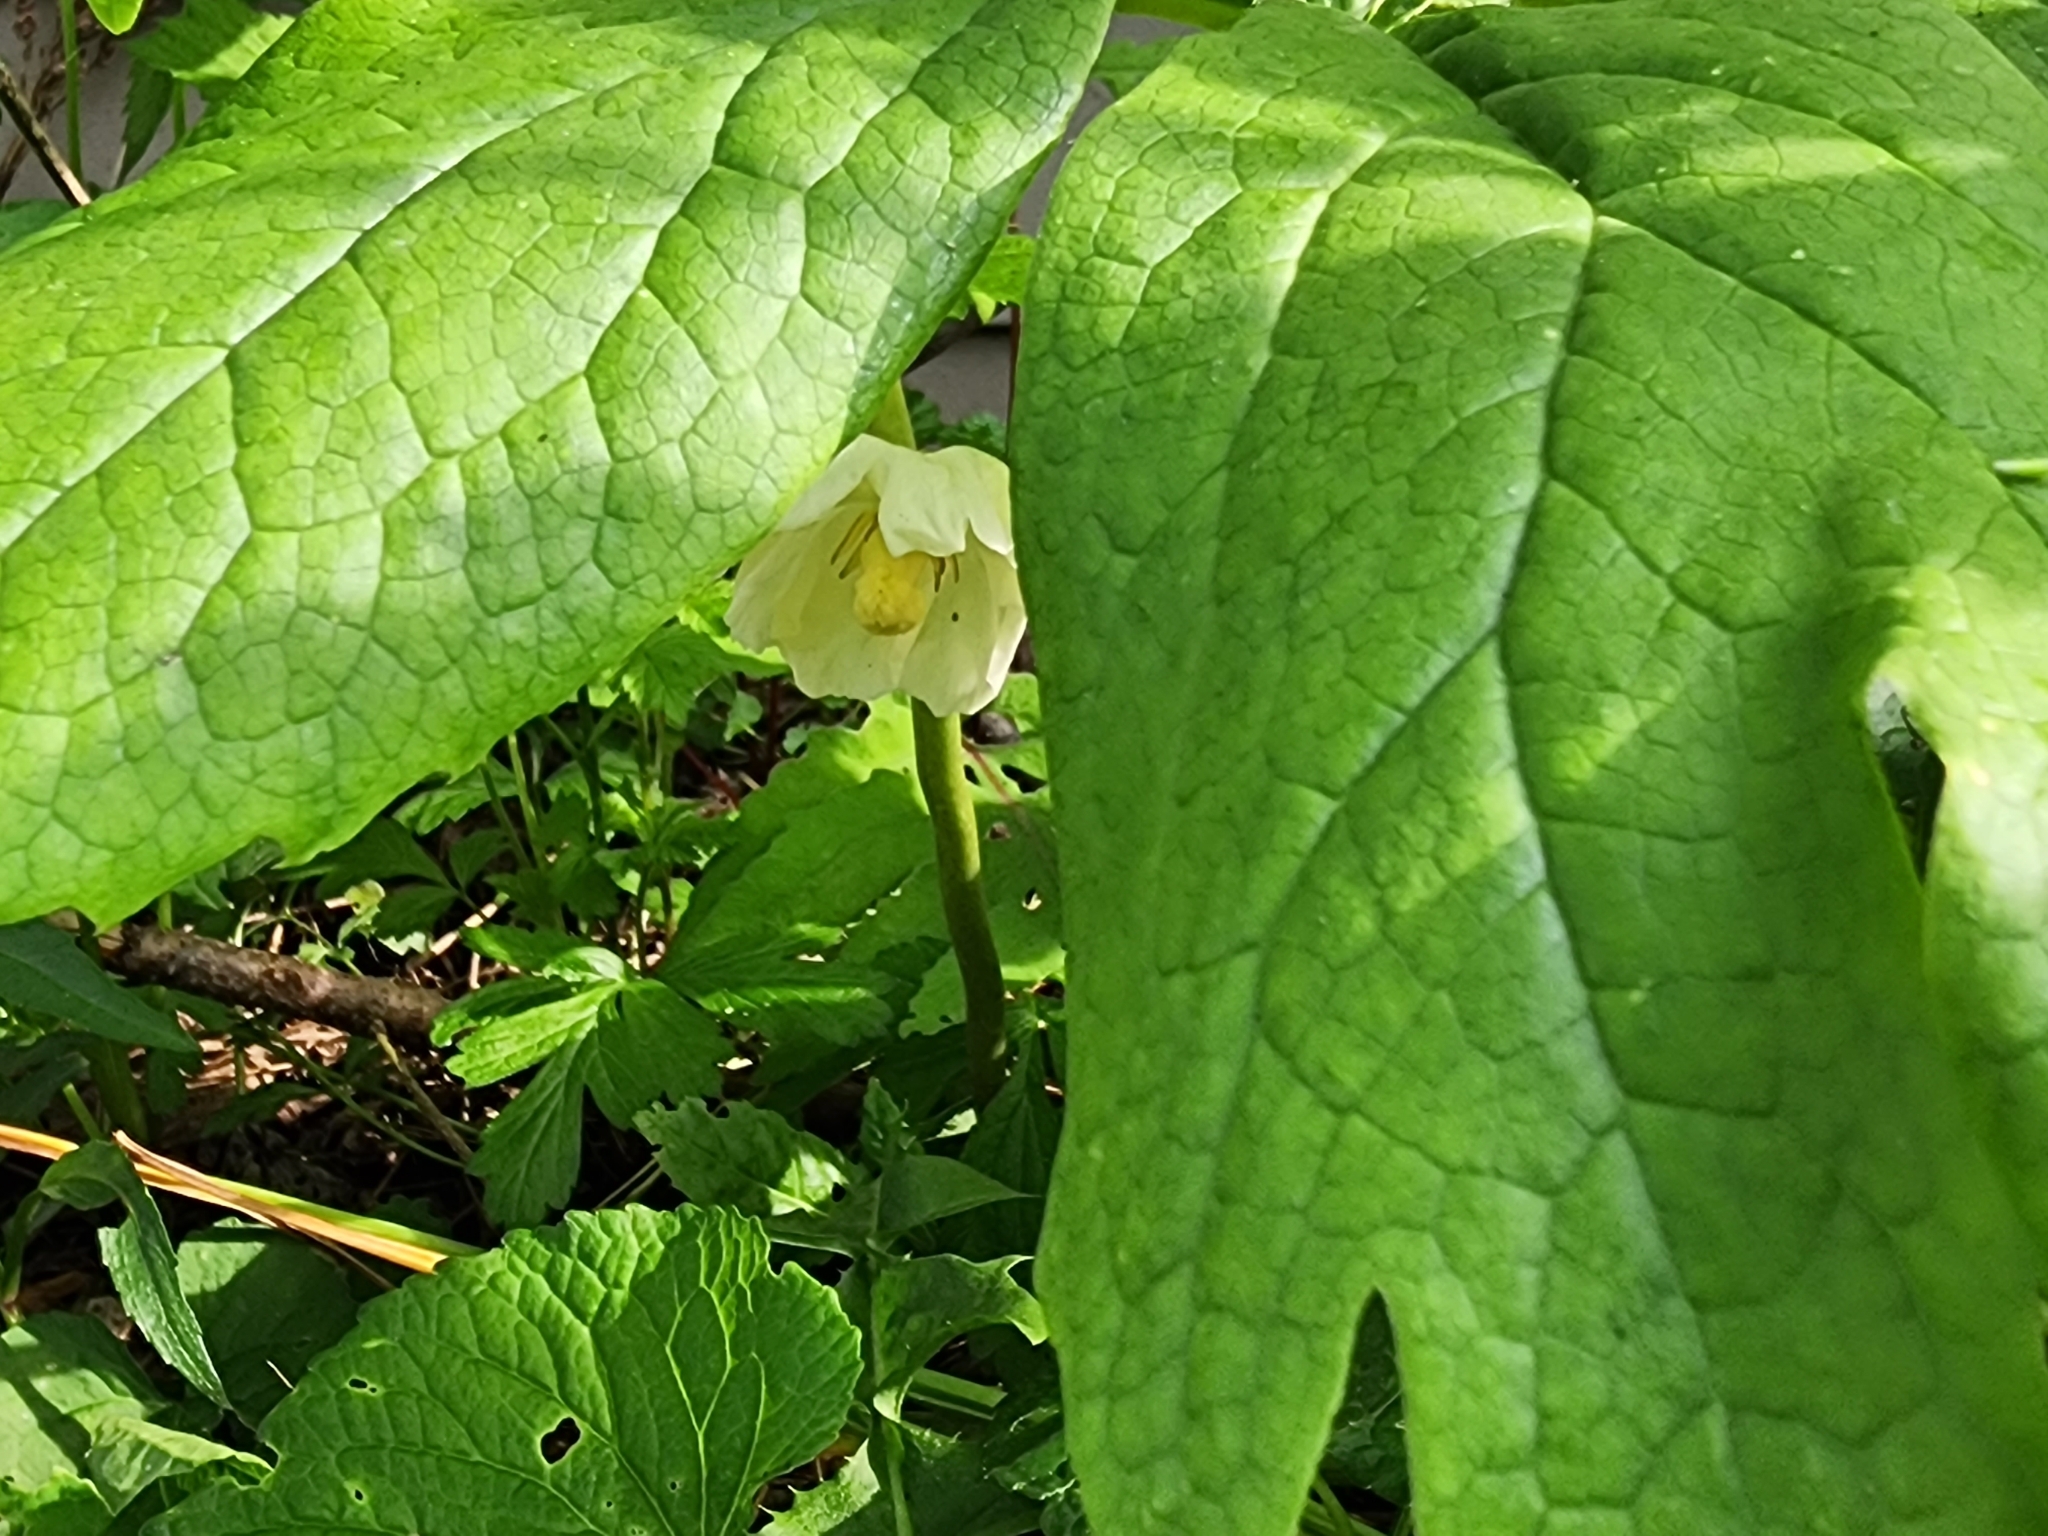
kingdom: Plantae
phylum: Tracheophyta
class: Magnoliopsida
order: Ranunculales
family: Berberidaceae
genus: Podophyllum
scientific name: Podophyllum peltatum
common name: Wild mandrake
